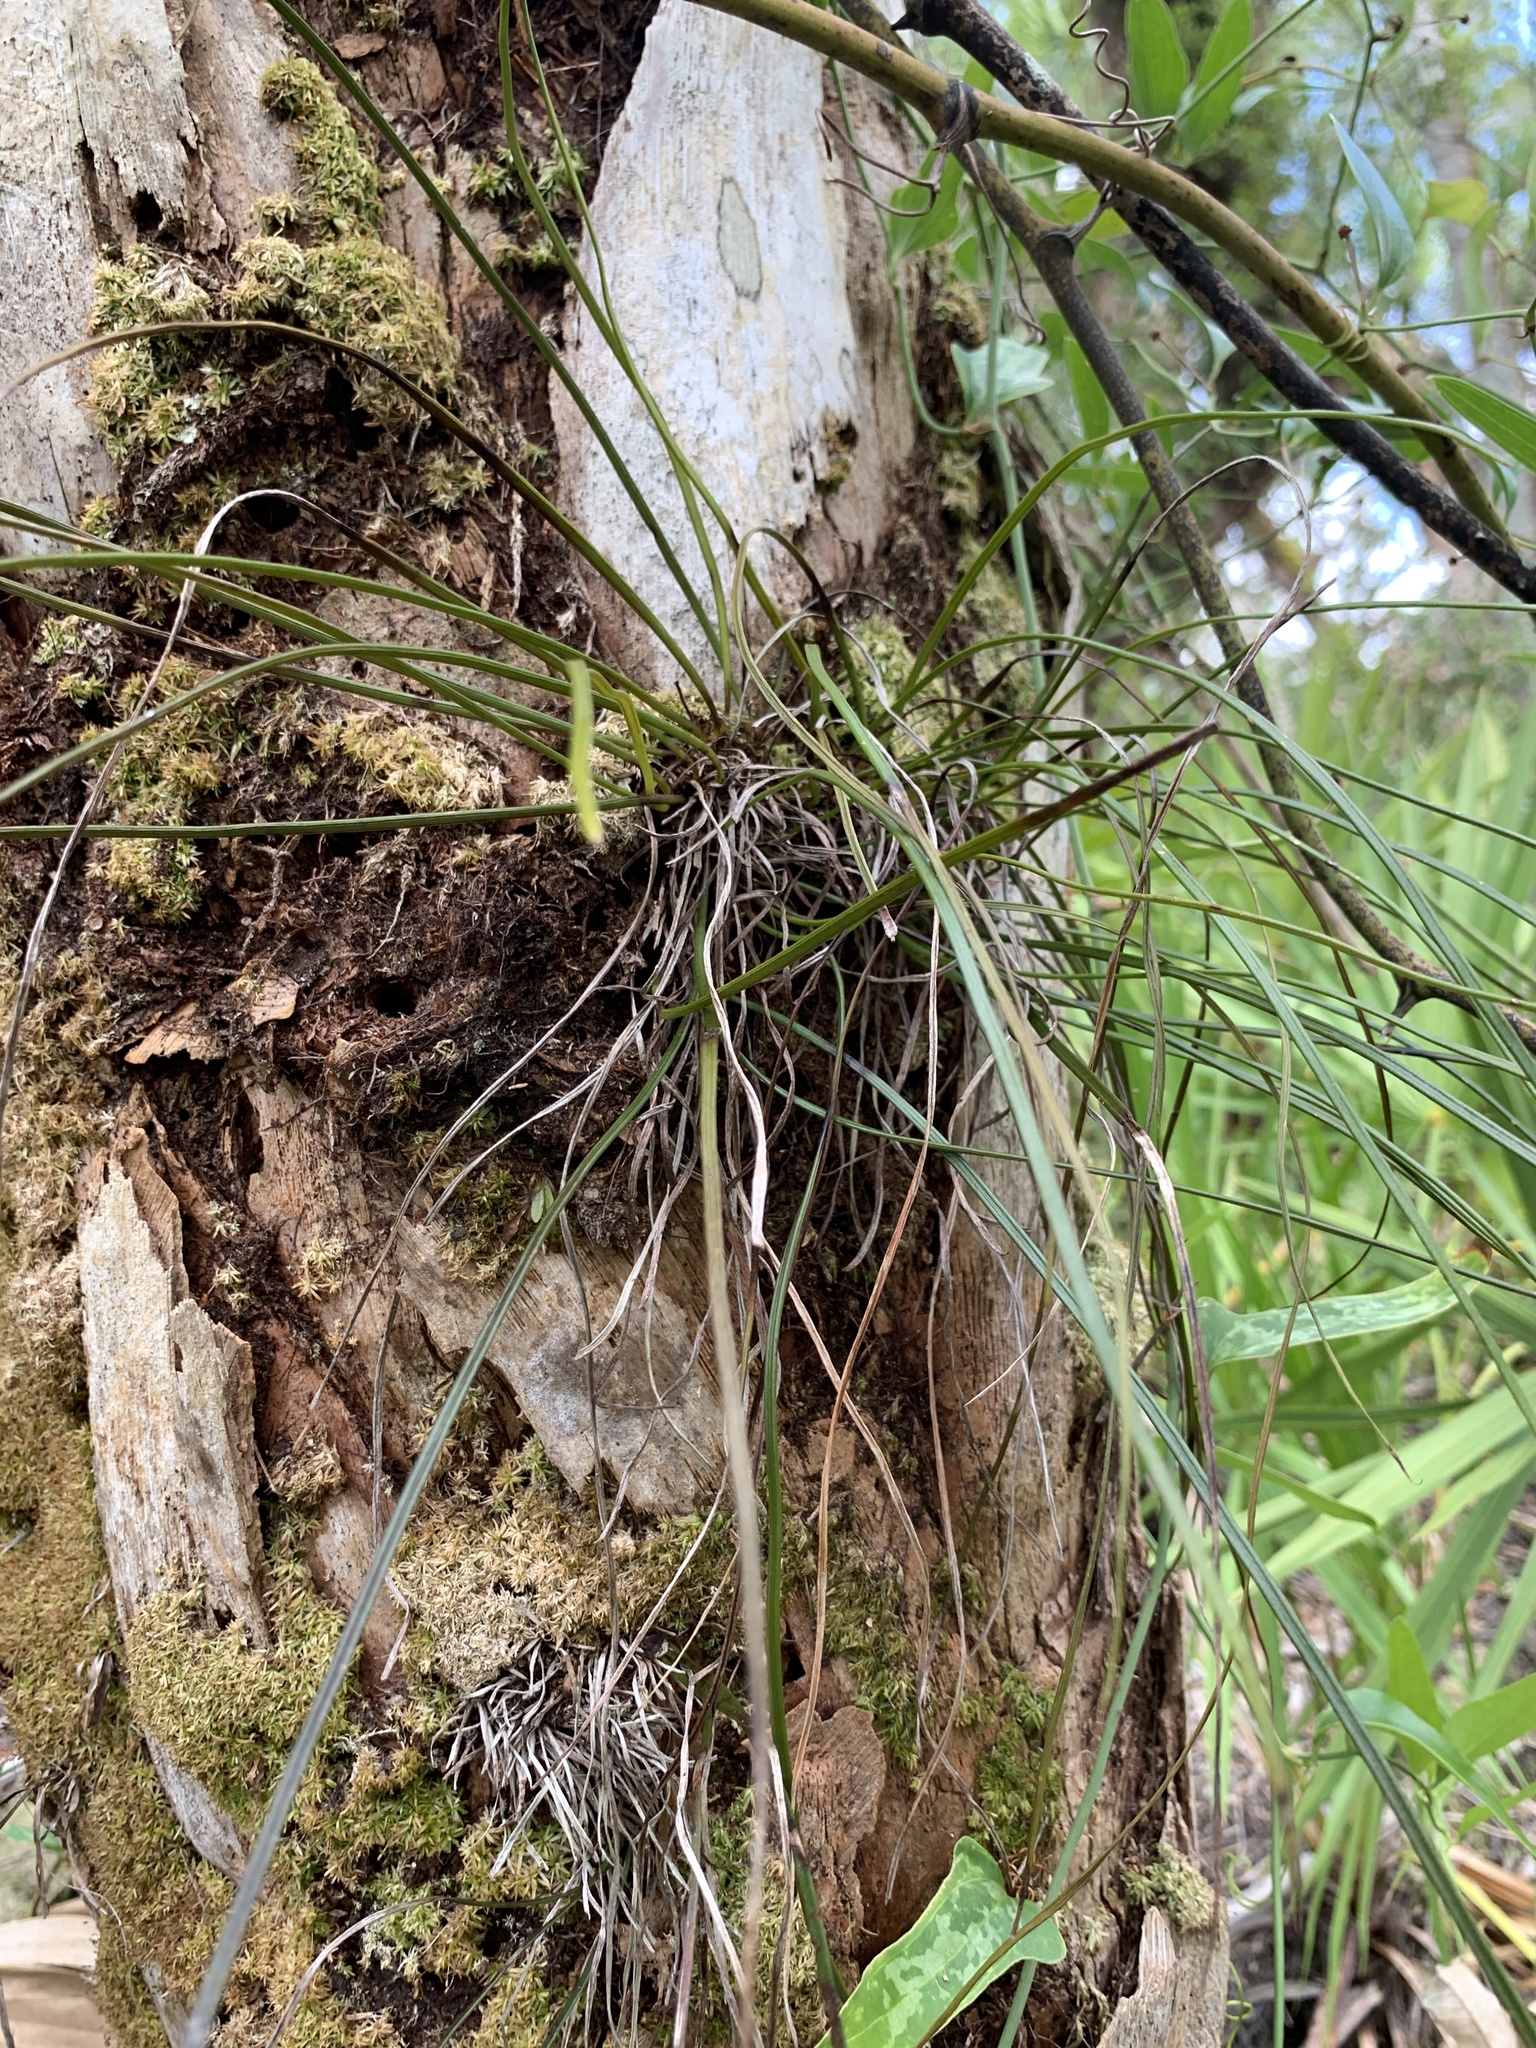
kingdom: Plantae
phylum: Tracheophyta
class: Polypodiopsida
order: Polypodiales
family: Pteridaceae
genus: Vittaria
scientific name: Vittaria lineata
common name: Shoestring fern
